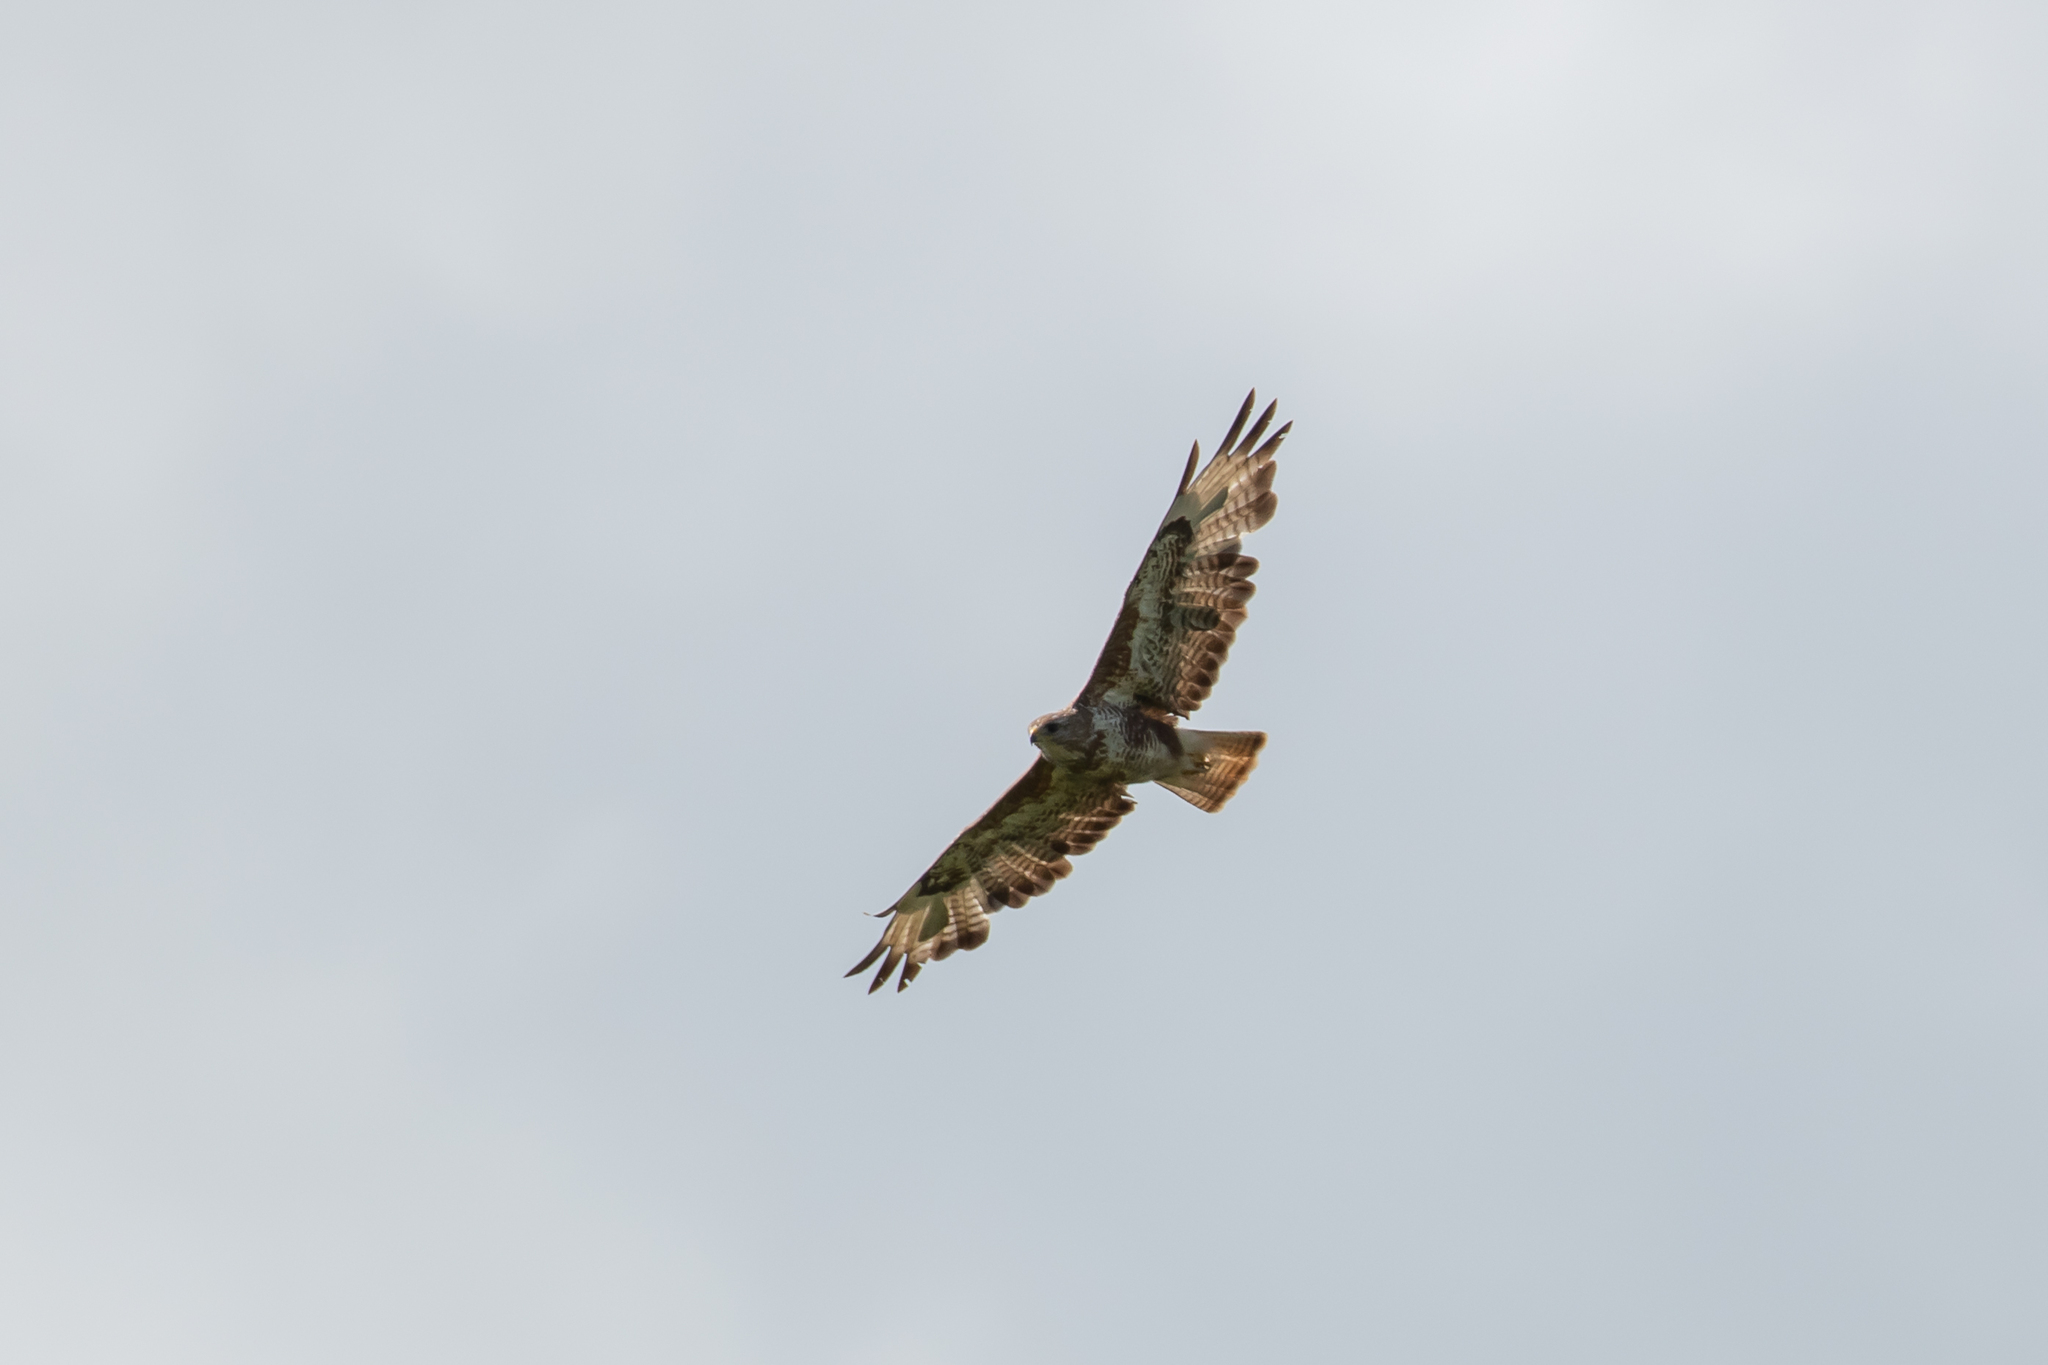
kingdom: Animalia
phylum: Chordata
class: Aves
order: Accipitriformes
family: Accipitridae
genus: Buteo
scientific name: Buteo buteo
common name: Common buzzard
